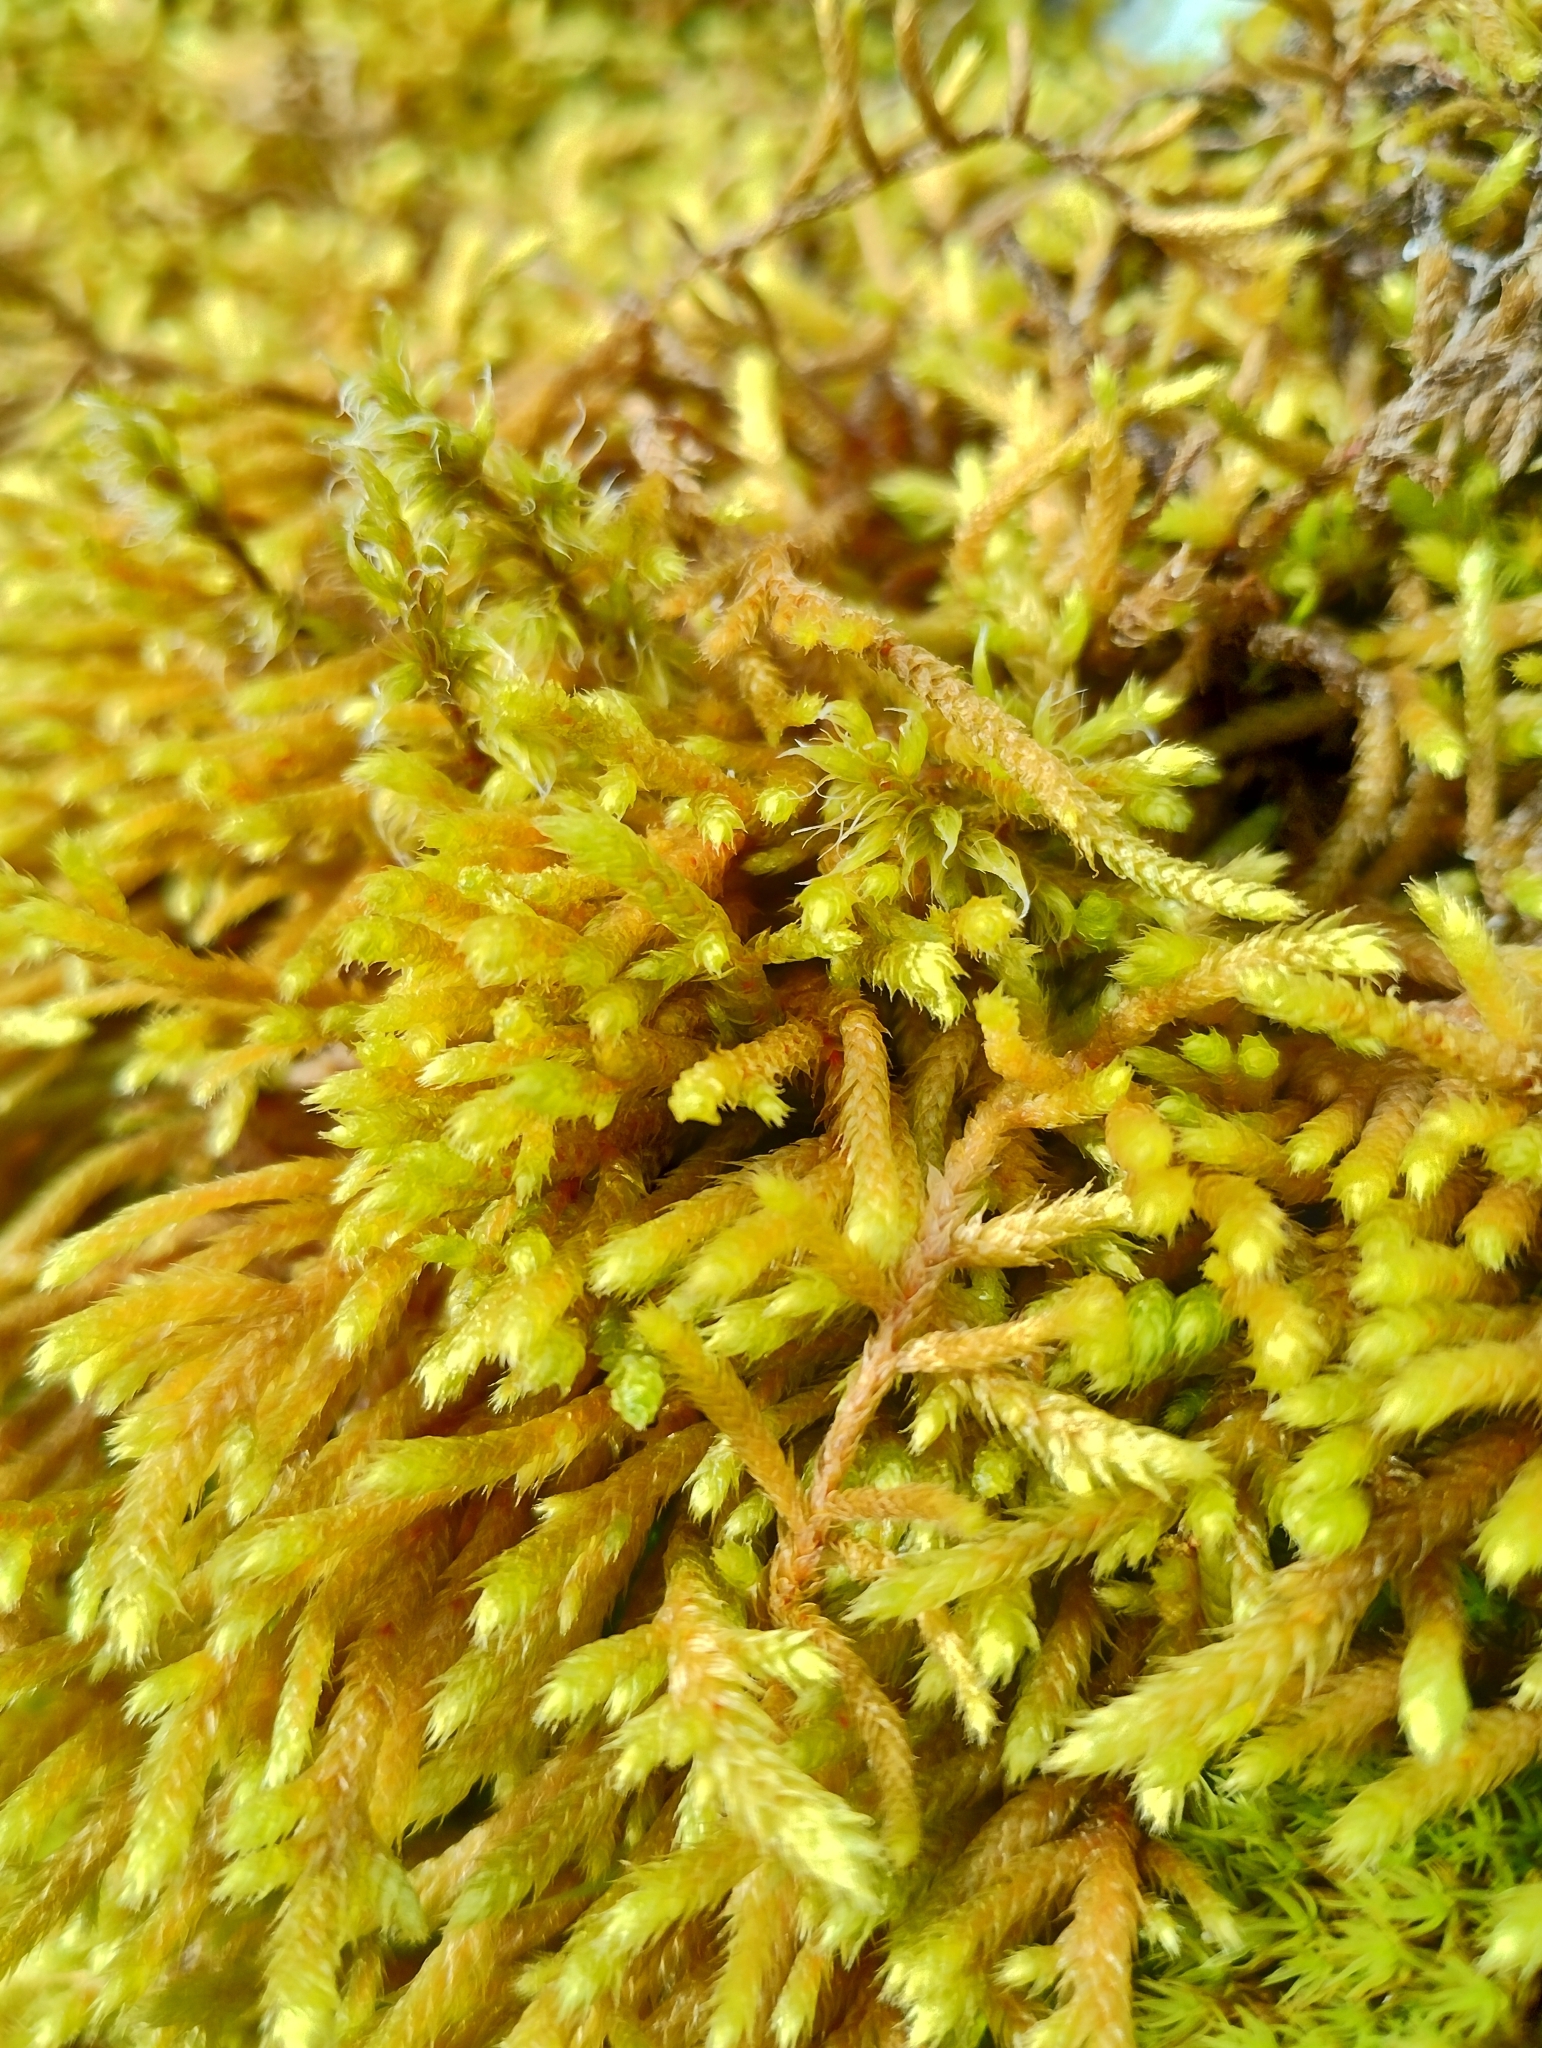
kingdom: Plantae
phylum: Bryophyta
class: Bryopsida
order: Hypnales
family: Antitrichiaceae
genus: Antitrichia
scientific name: Antitrichia curtipendula
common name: Pendulous wing-moss
